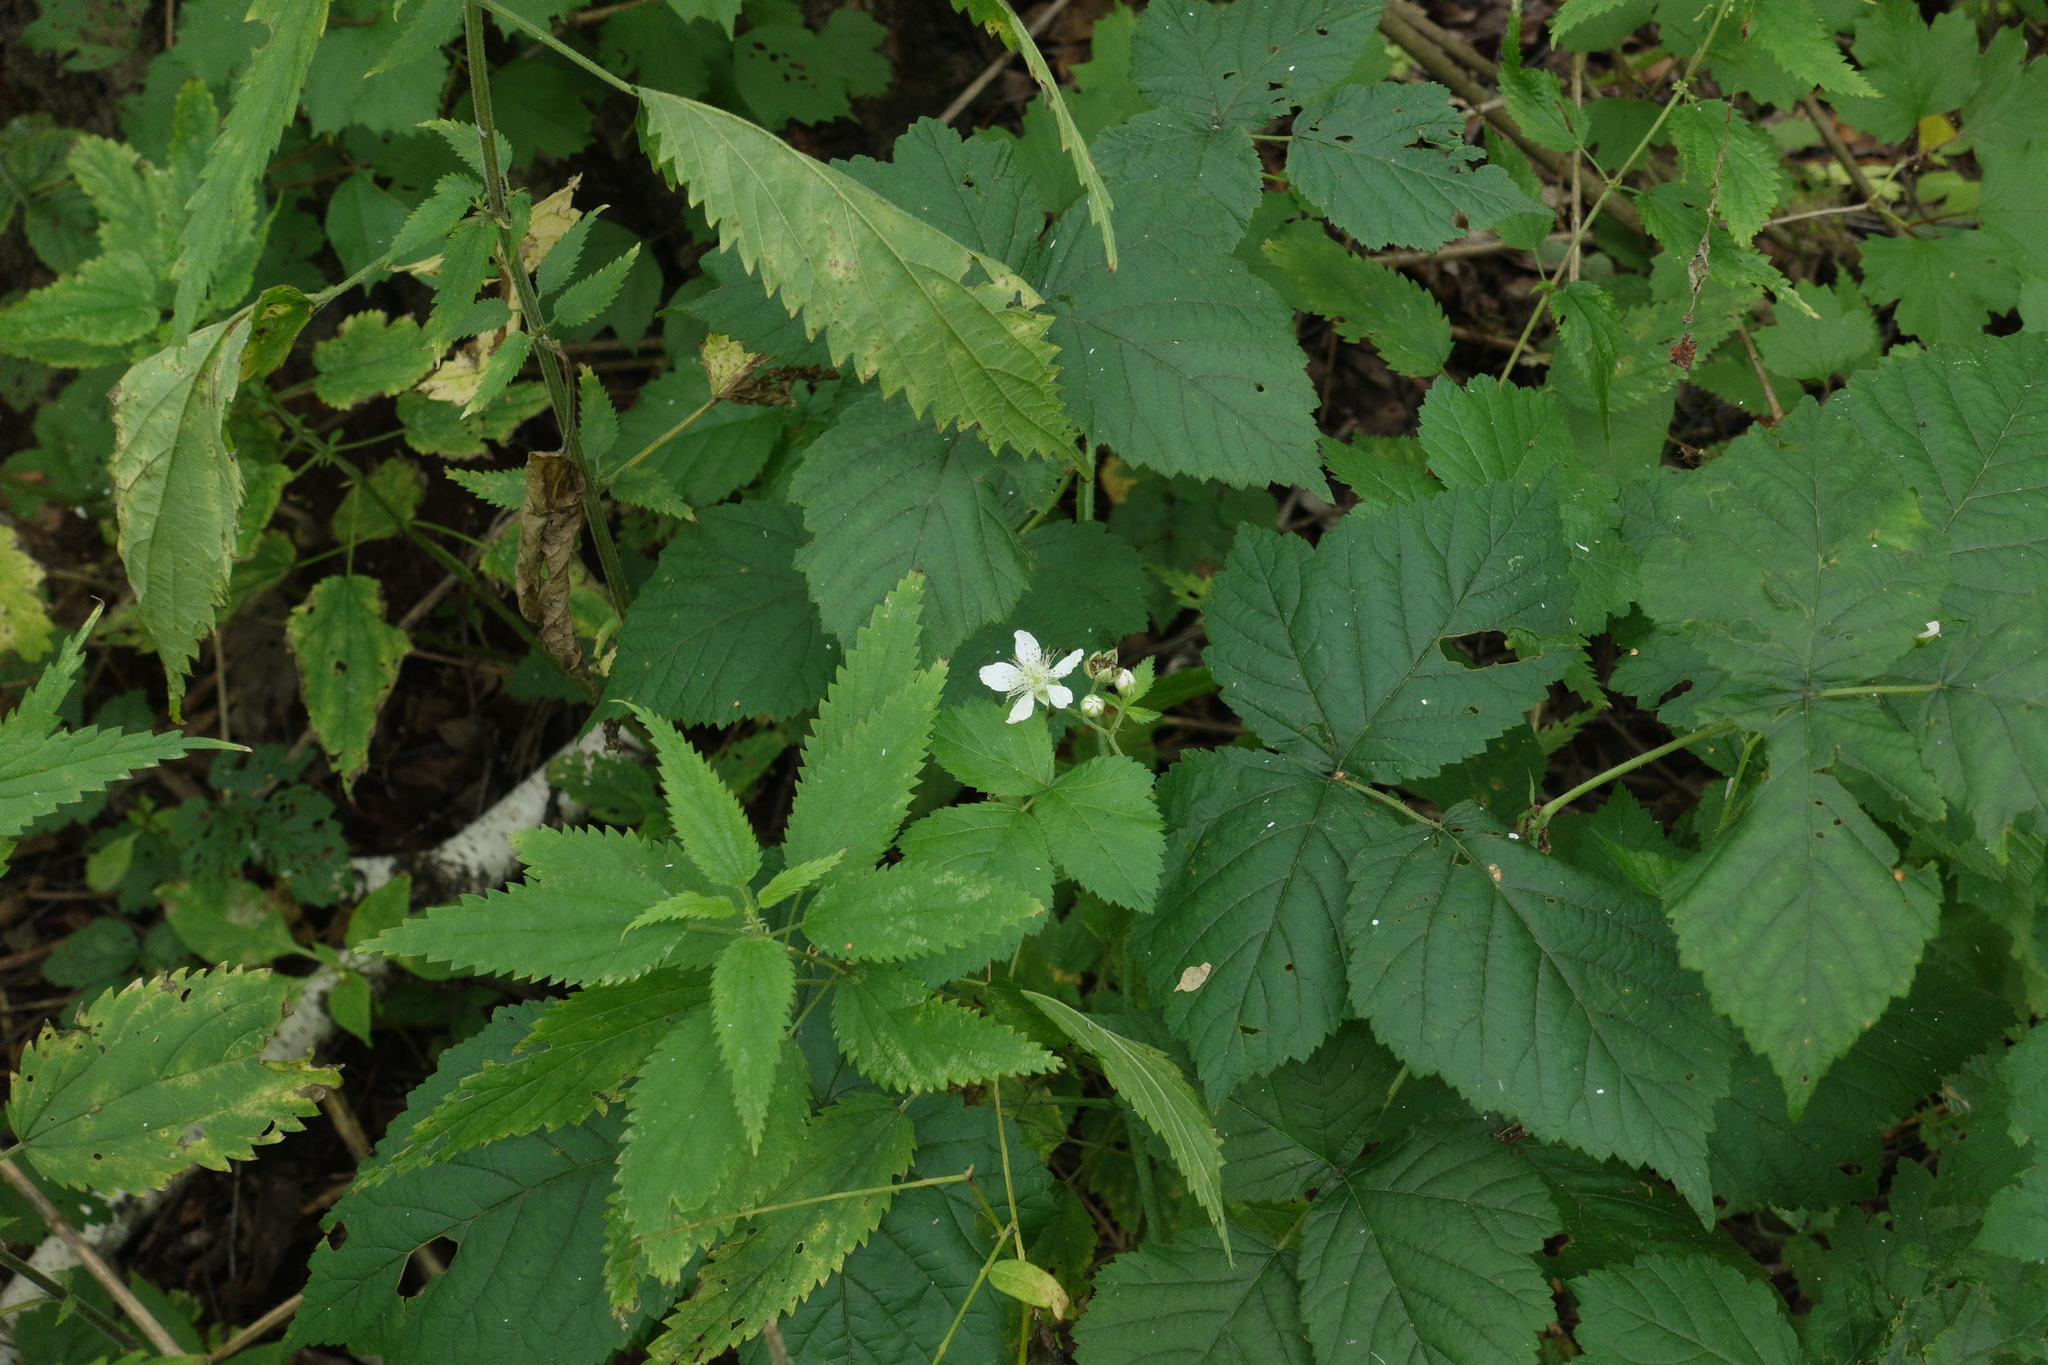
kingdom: Plantae
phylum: Tracheophyta
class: Magnoliopsida
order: Rosales
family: Rosaceae
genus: Rubus
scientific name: Rubus caesius
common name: Dewberry
